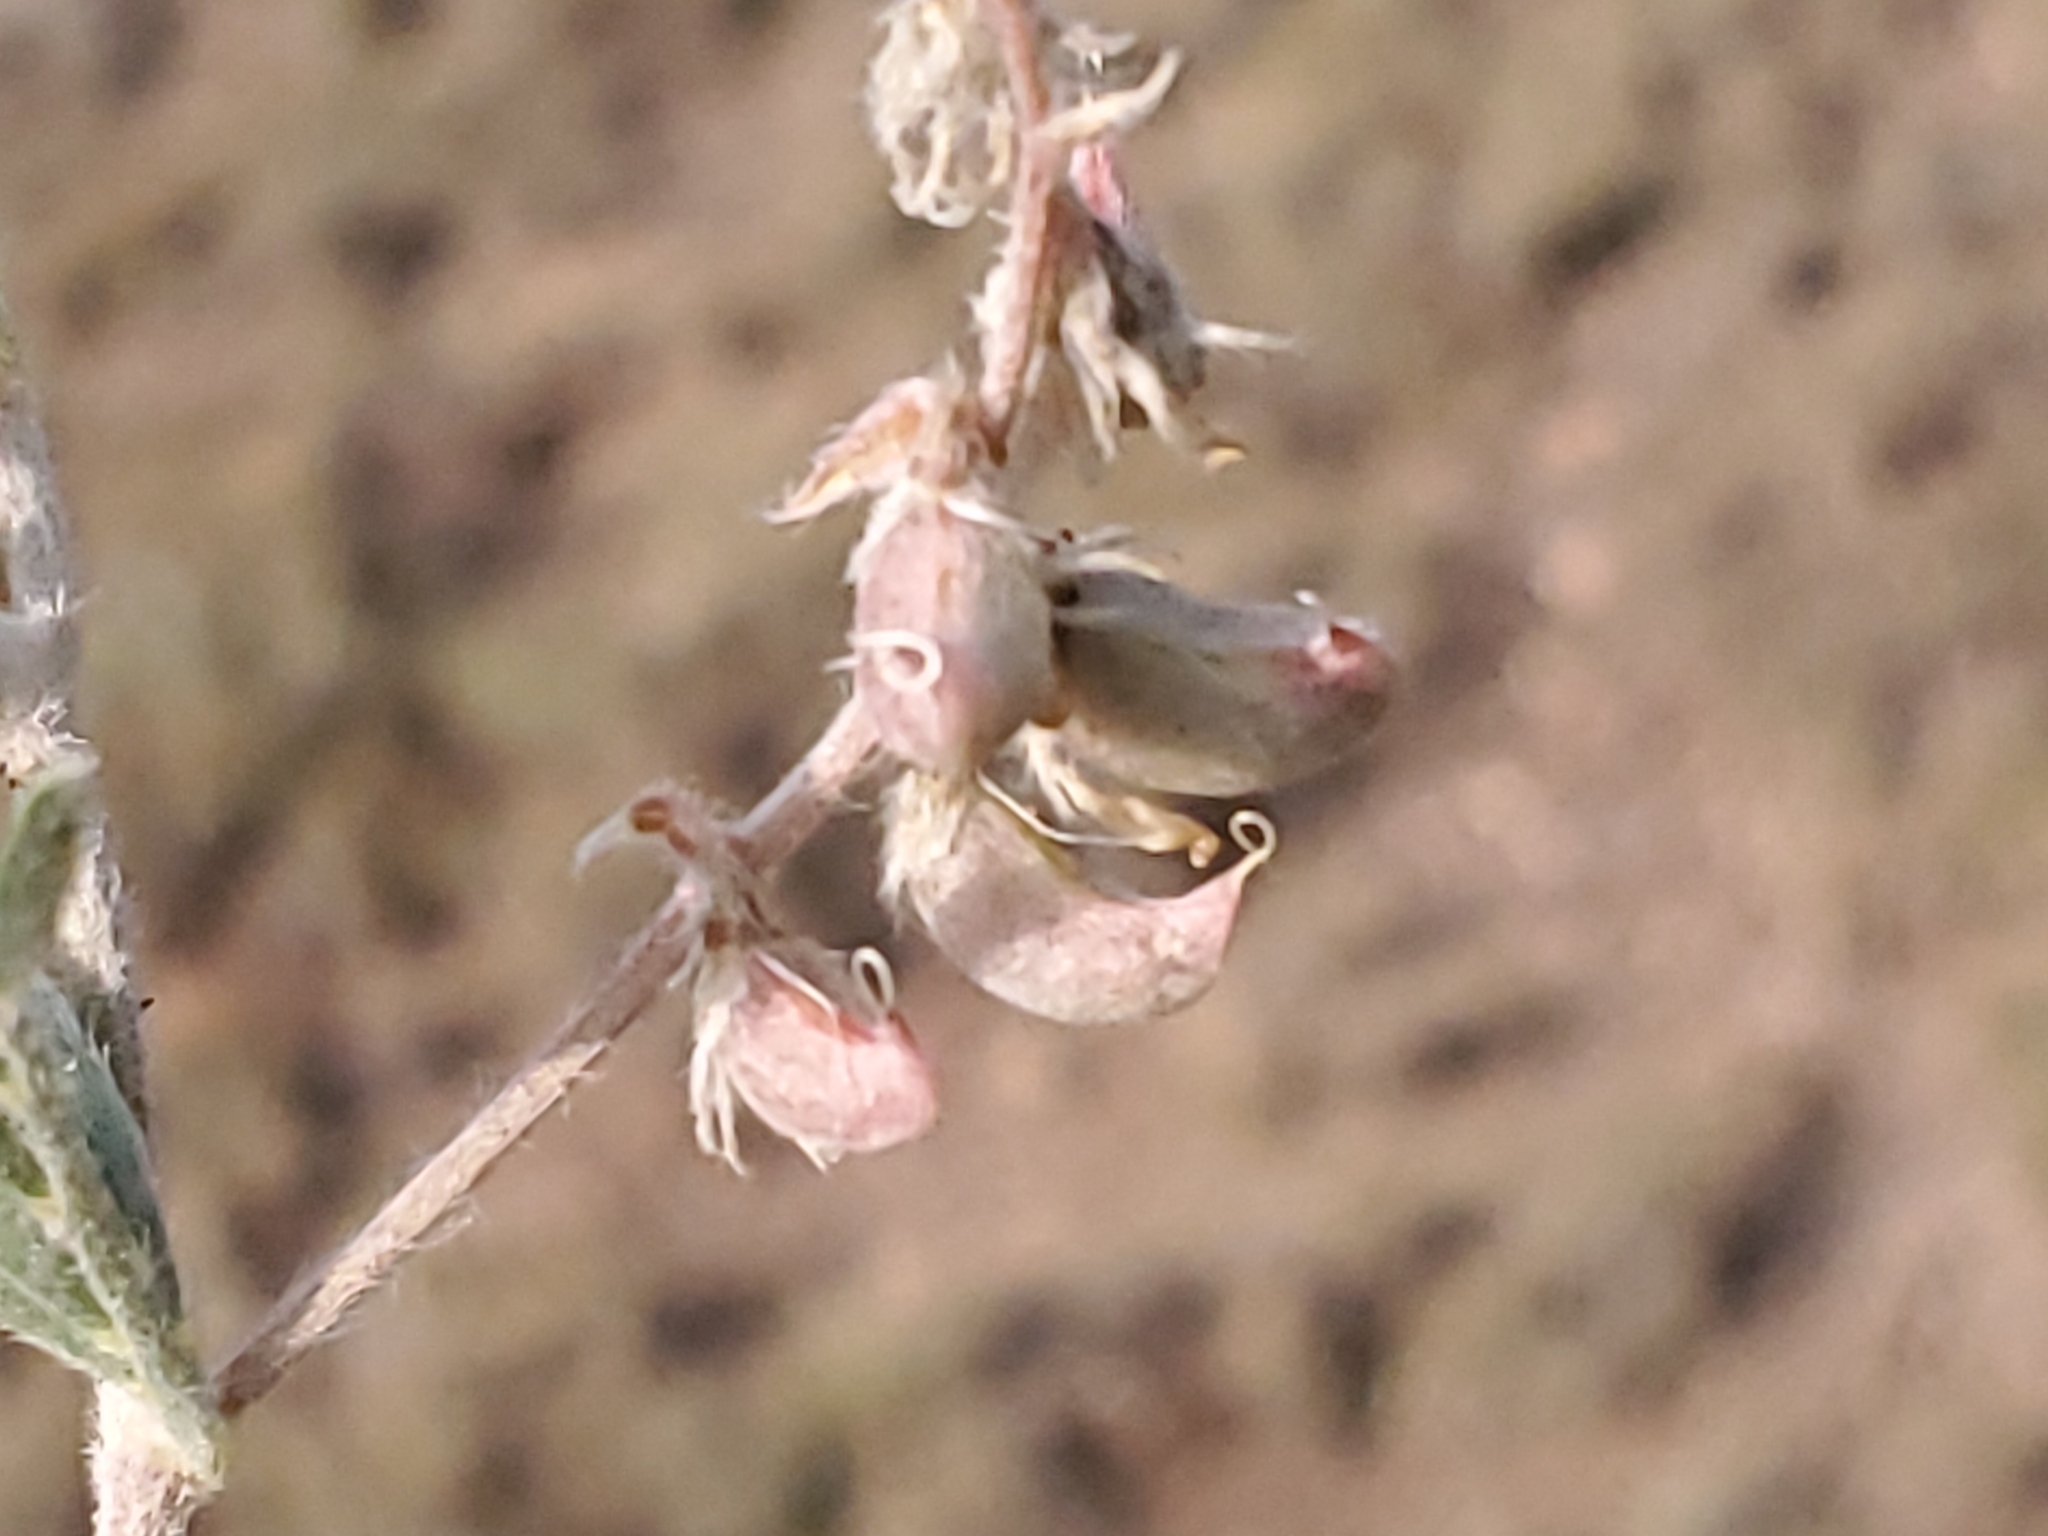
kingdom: Plantae
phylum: Tracheophyta
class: Magnoliopsida
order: Fabales
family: Fabaceae
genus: Astragalus
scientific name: Astragalus humistratus
